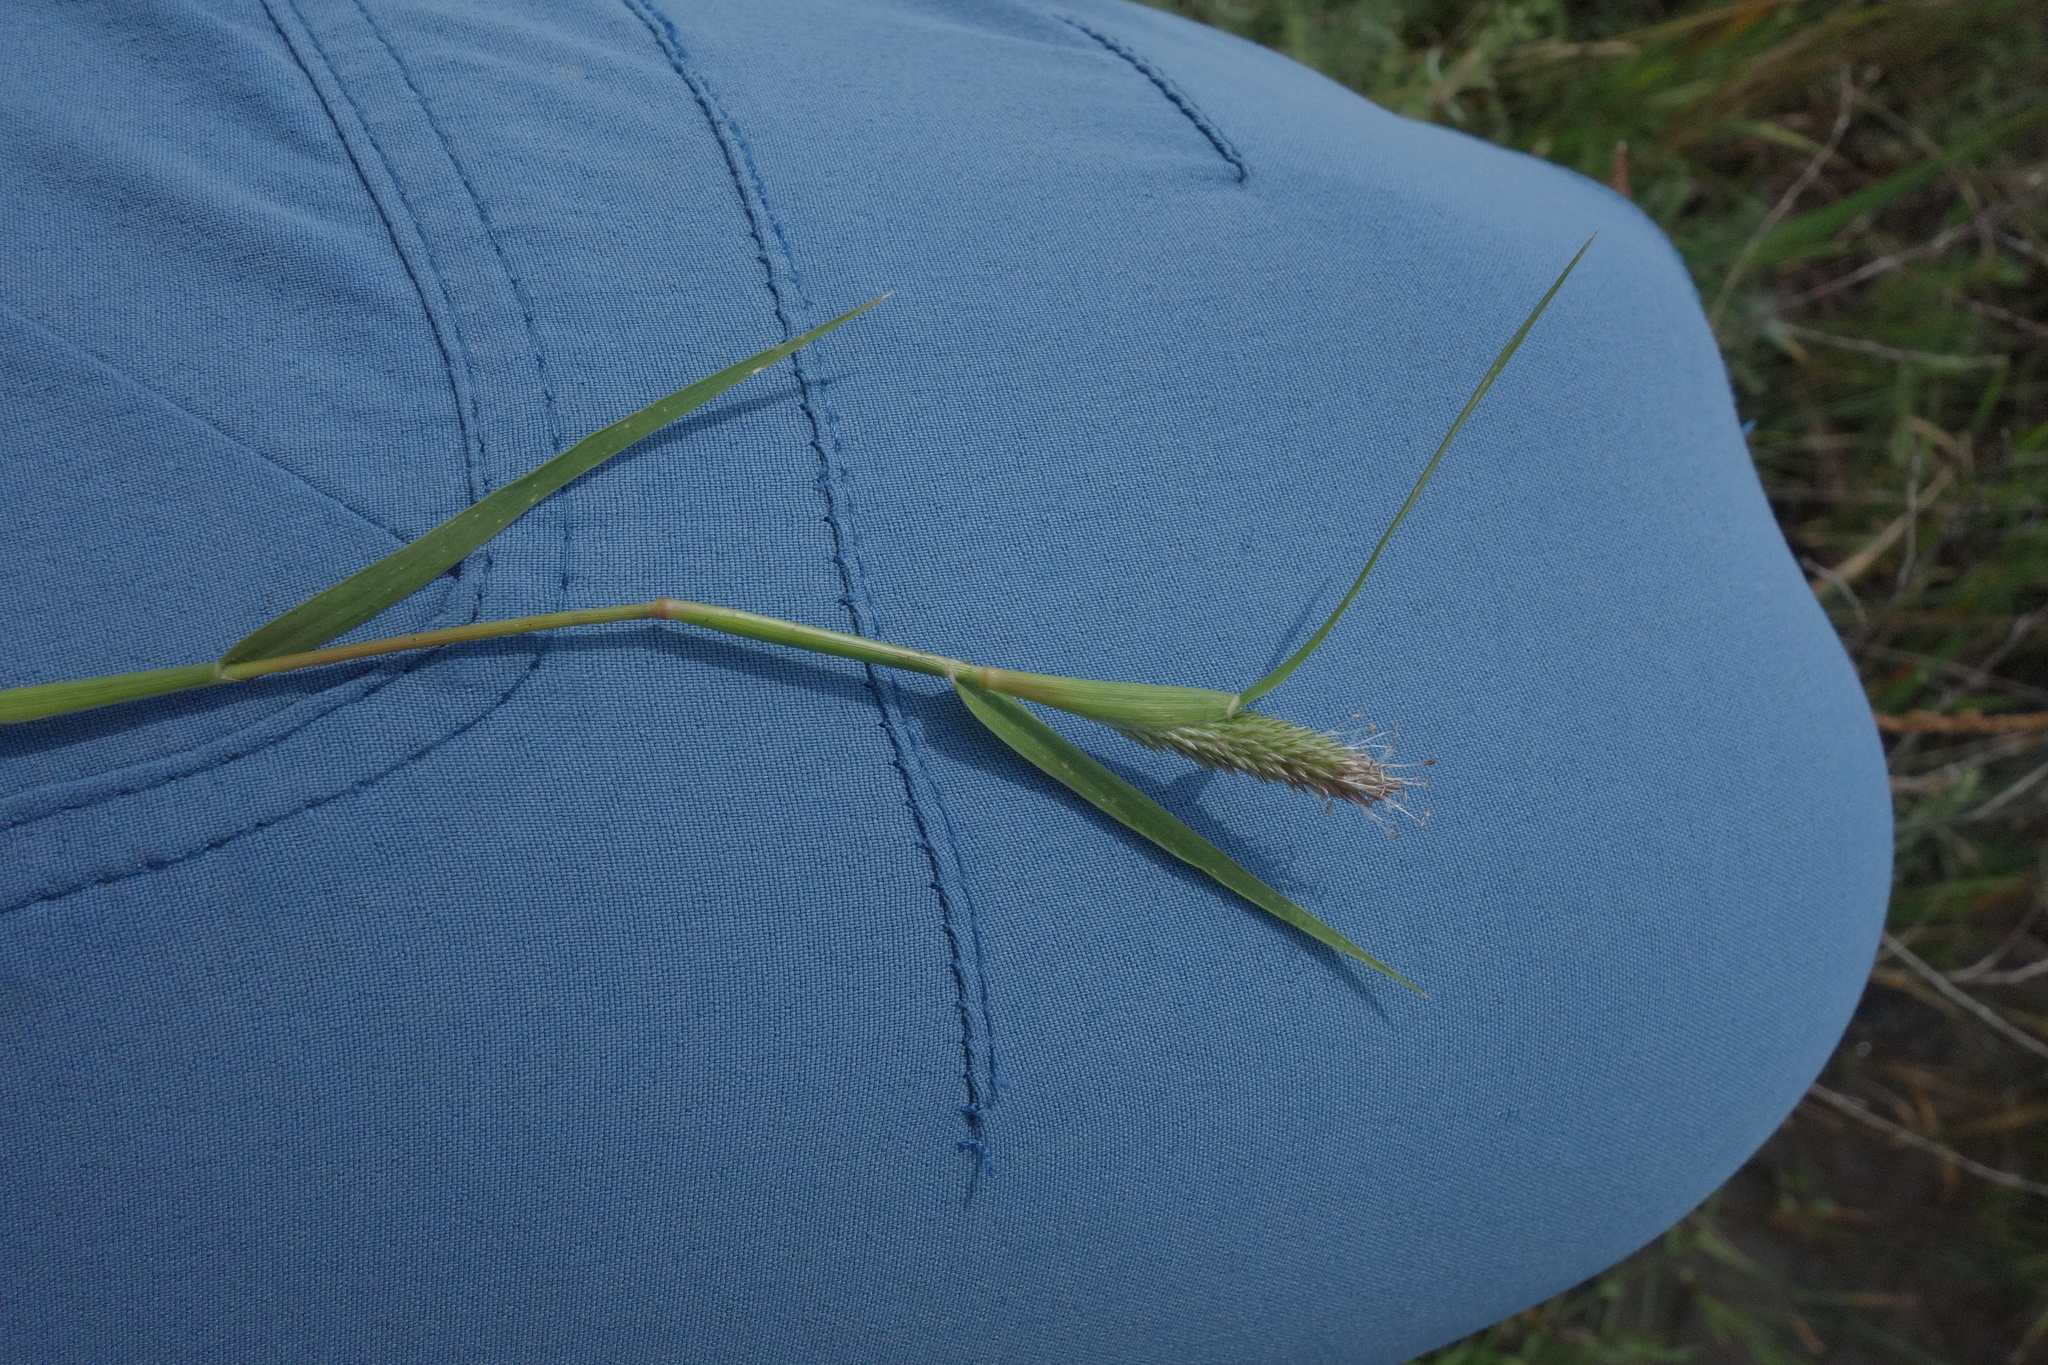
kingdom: Plantae
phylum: Tracheophyta
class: Liliopsida
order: Poales
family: Poaceae
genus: Sporobolus
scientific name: Sporobolus schoenoides
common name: Rush-like timothy
